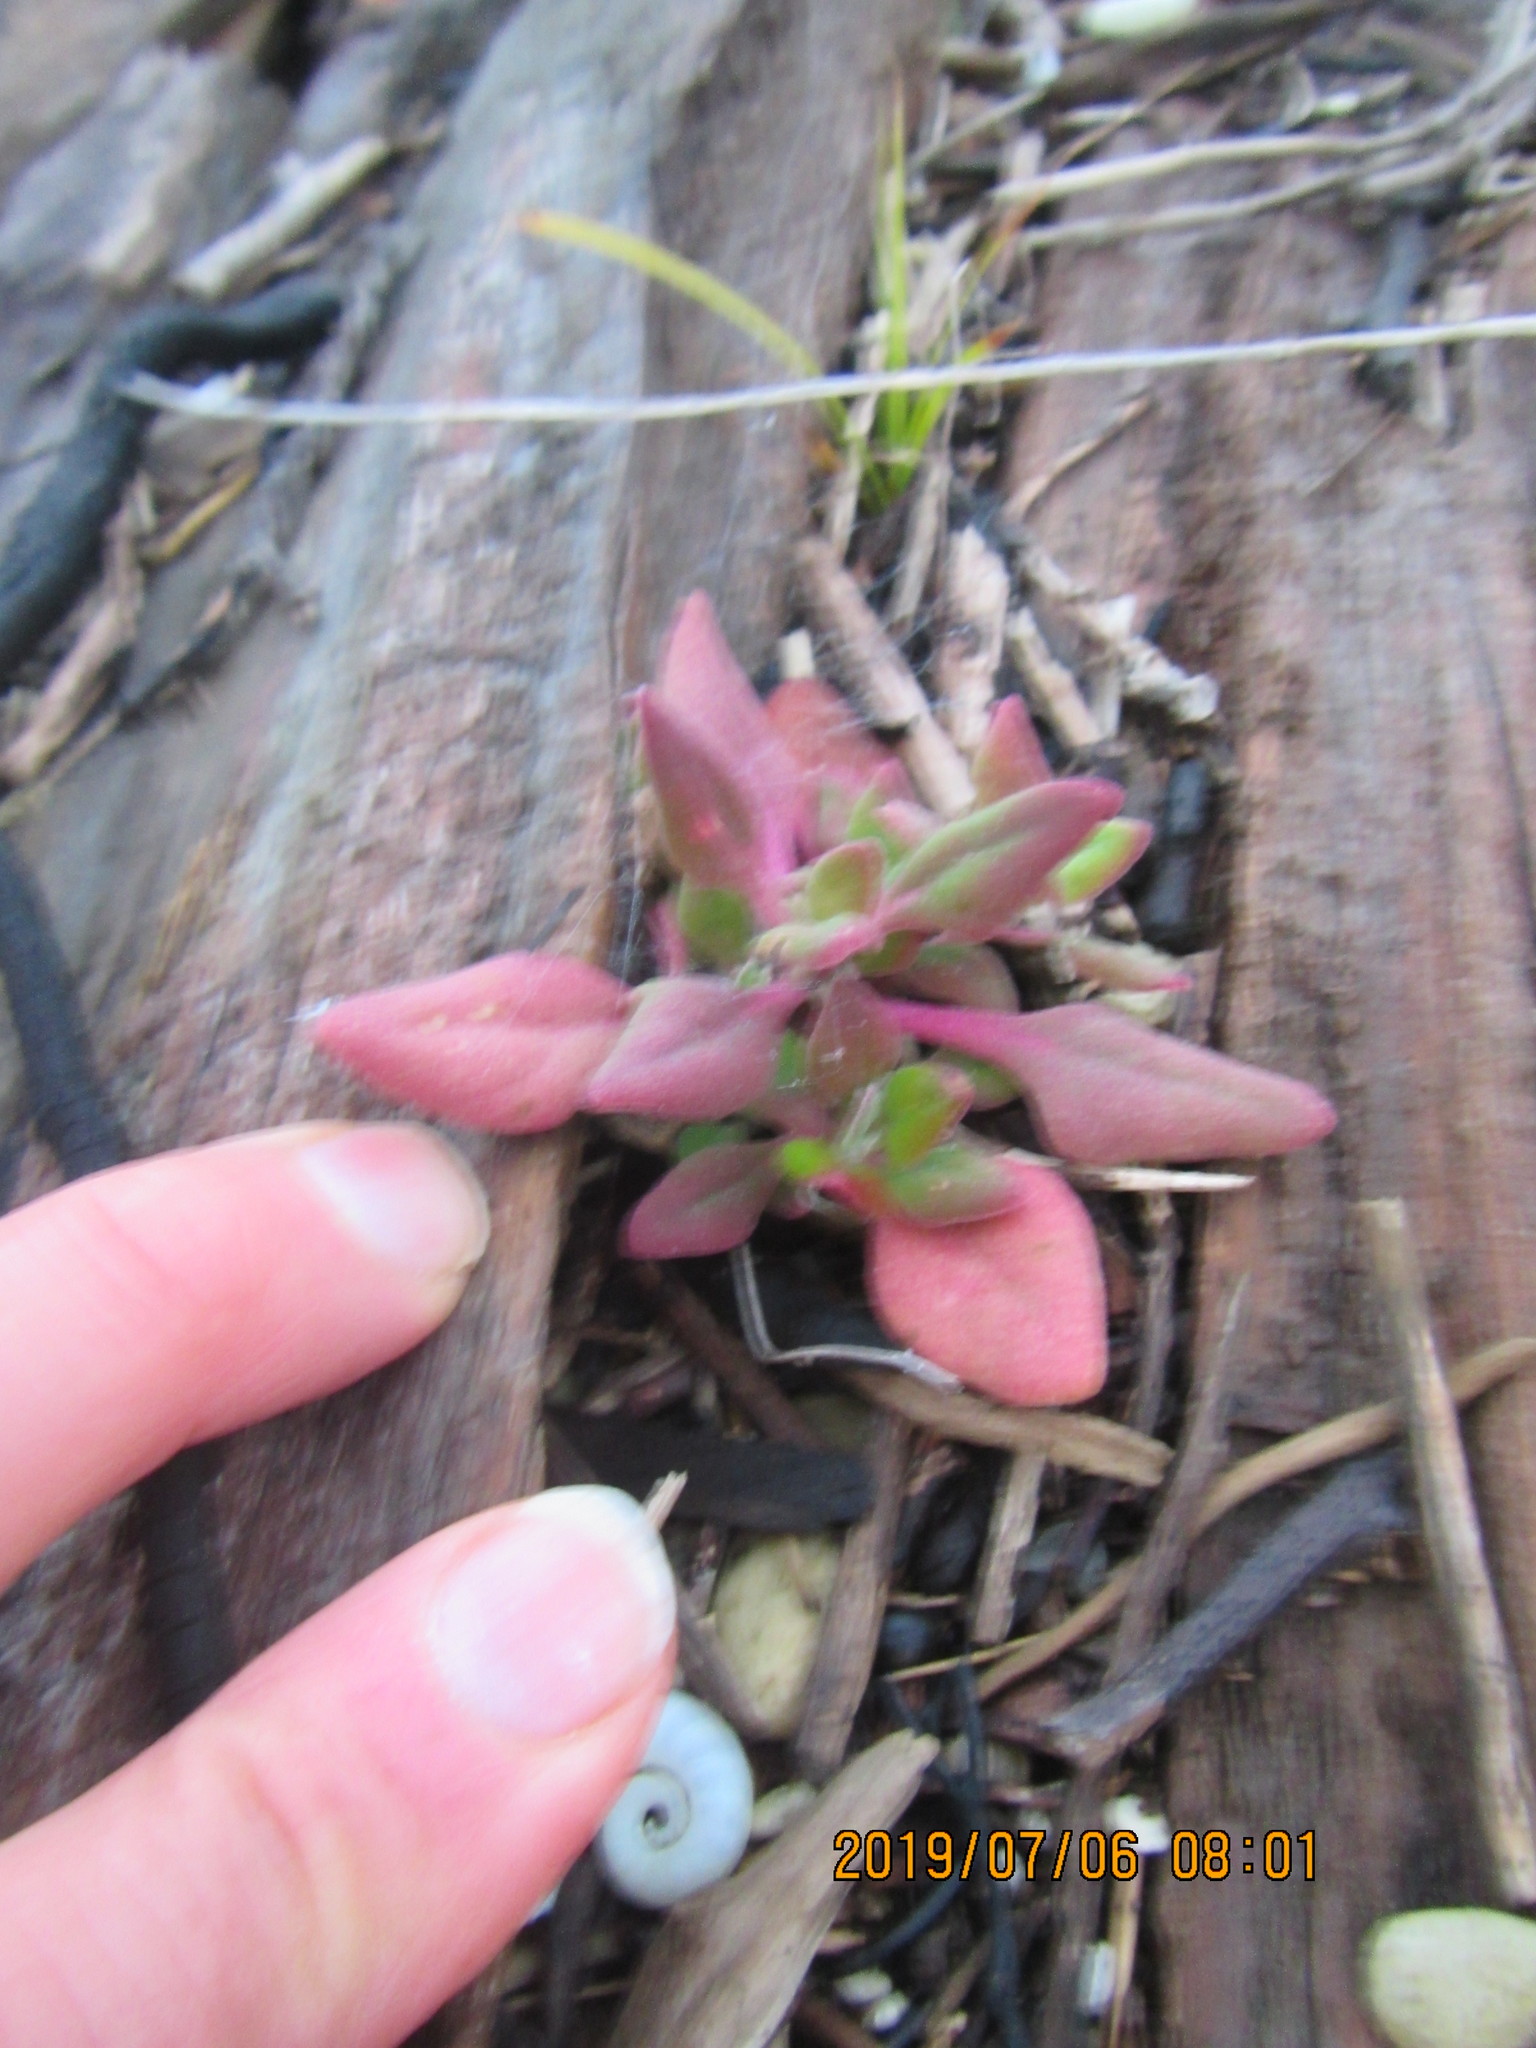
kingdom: Plantae
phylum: Tracheophyta
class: Magnoliopsida
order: Caryophyllales
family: Aizoaceae
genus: Tetragonia
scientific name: Tetragonia implexicoma
